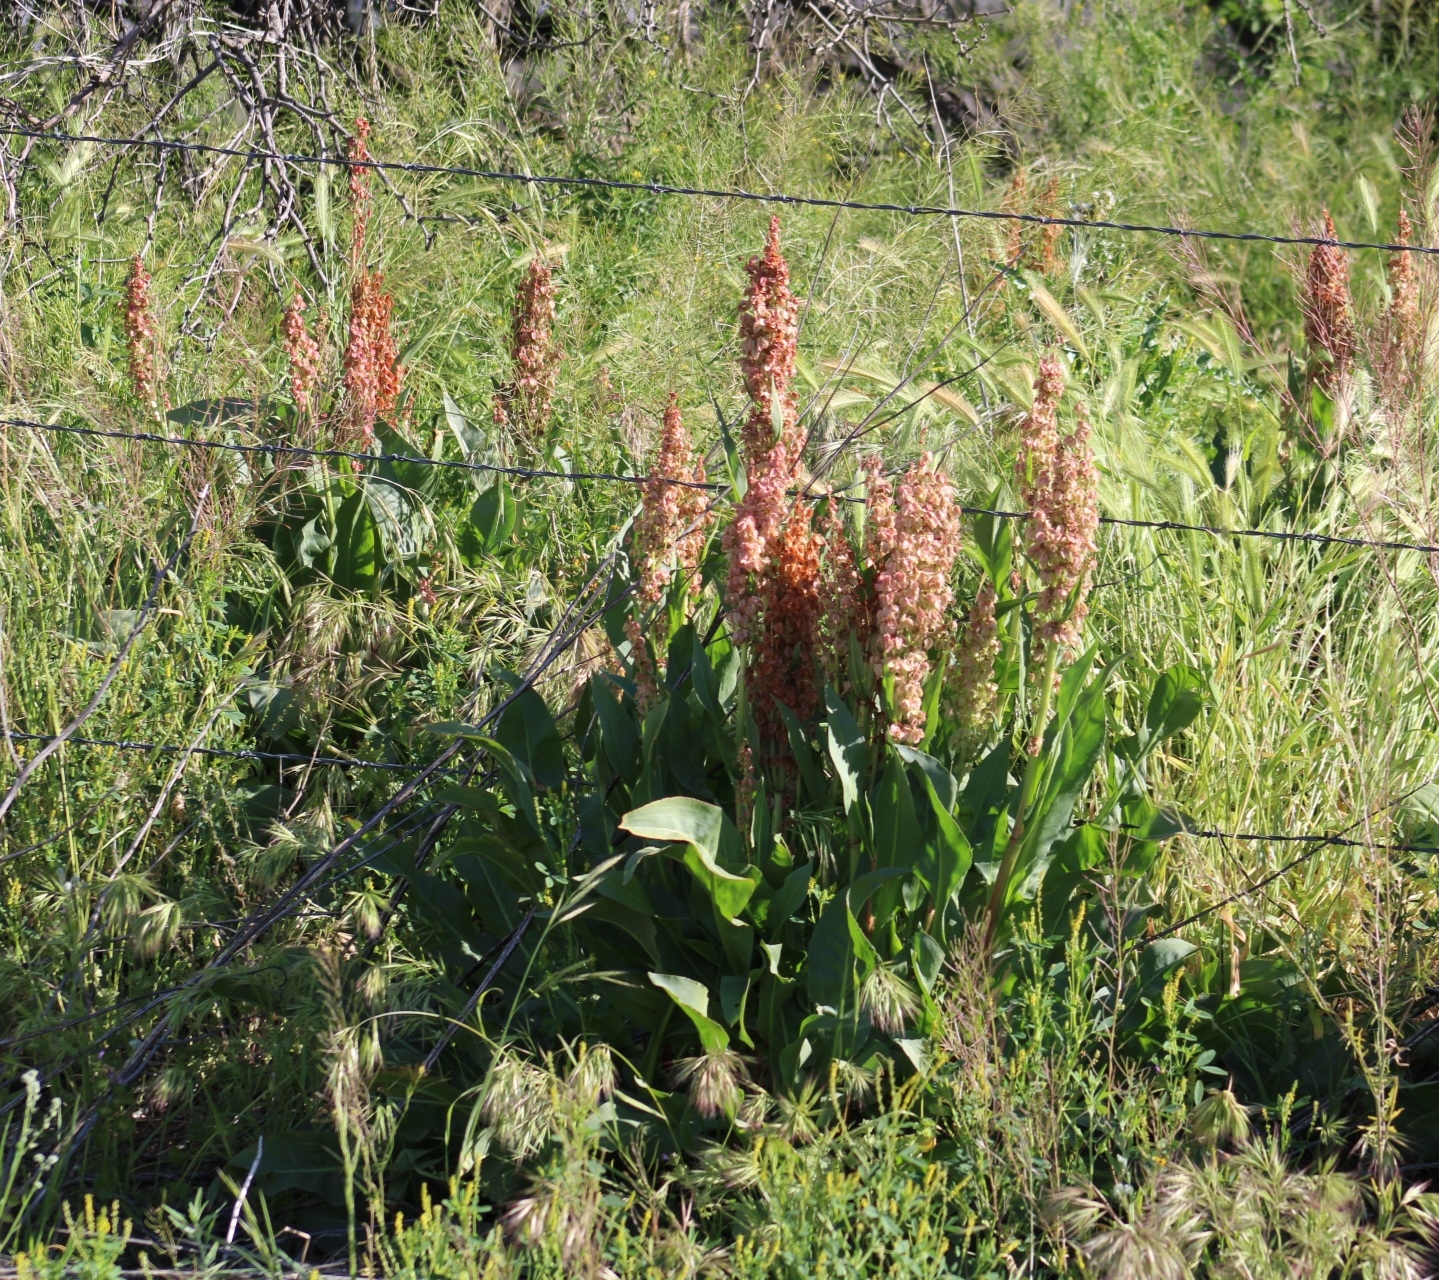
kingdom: Plantae
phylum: Tracheophyta
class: Magnoliopsida
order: Caryophyllales
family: Polygonaceae
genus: Rumex
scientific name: Rumex hymenosepalus
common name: Ganagra
